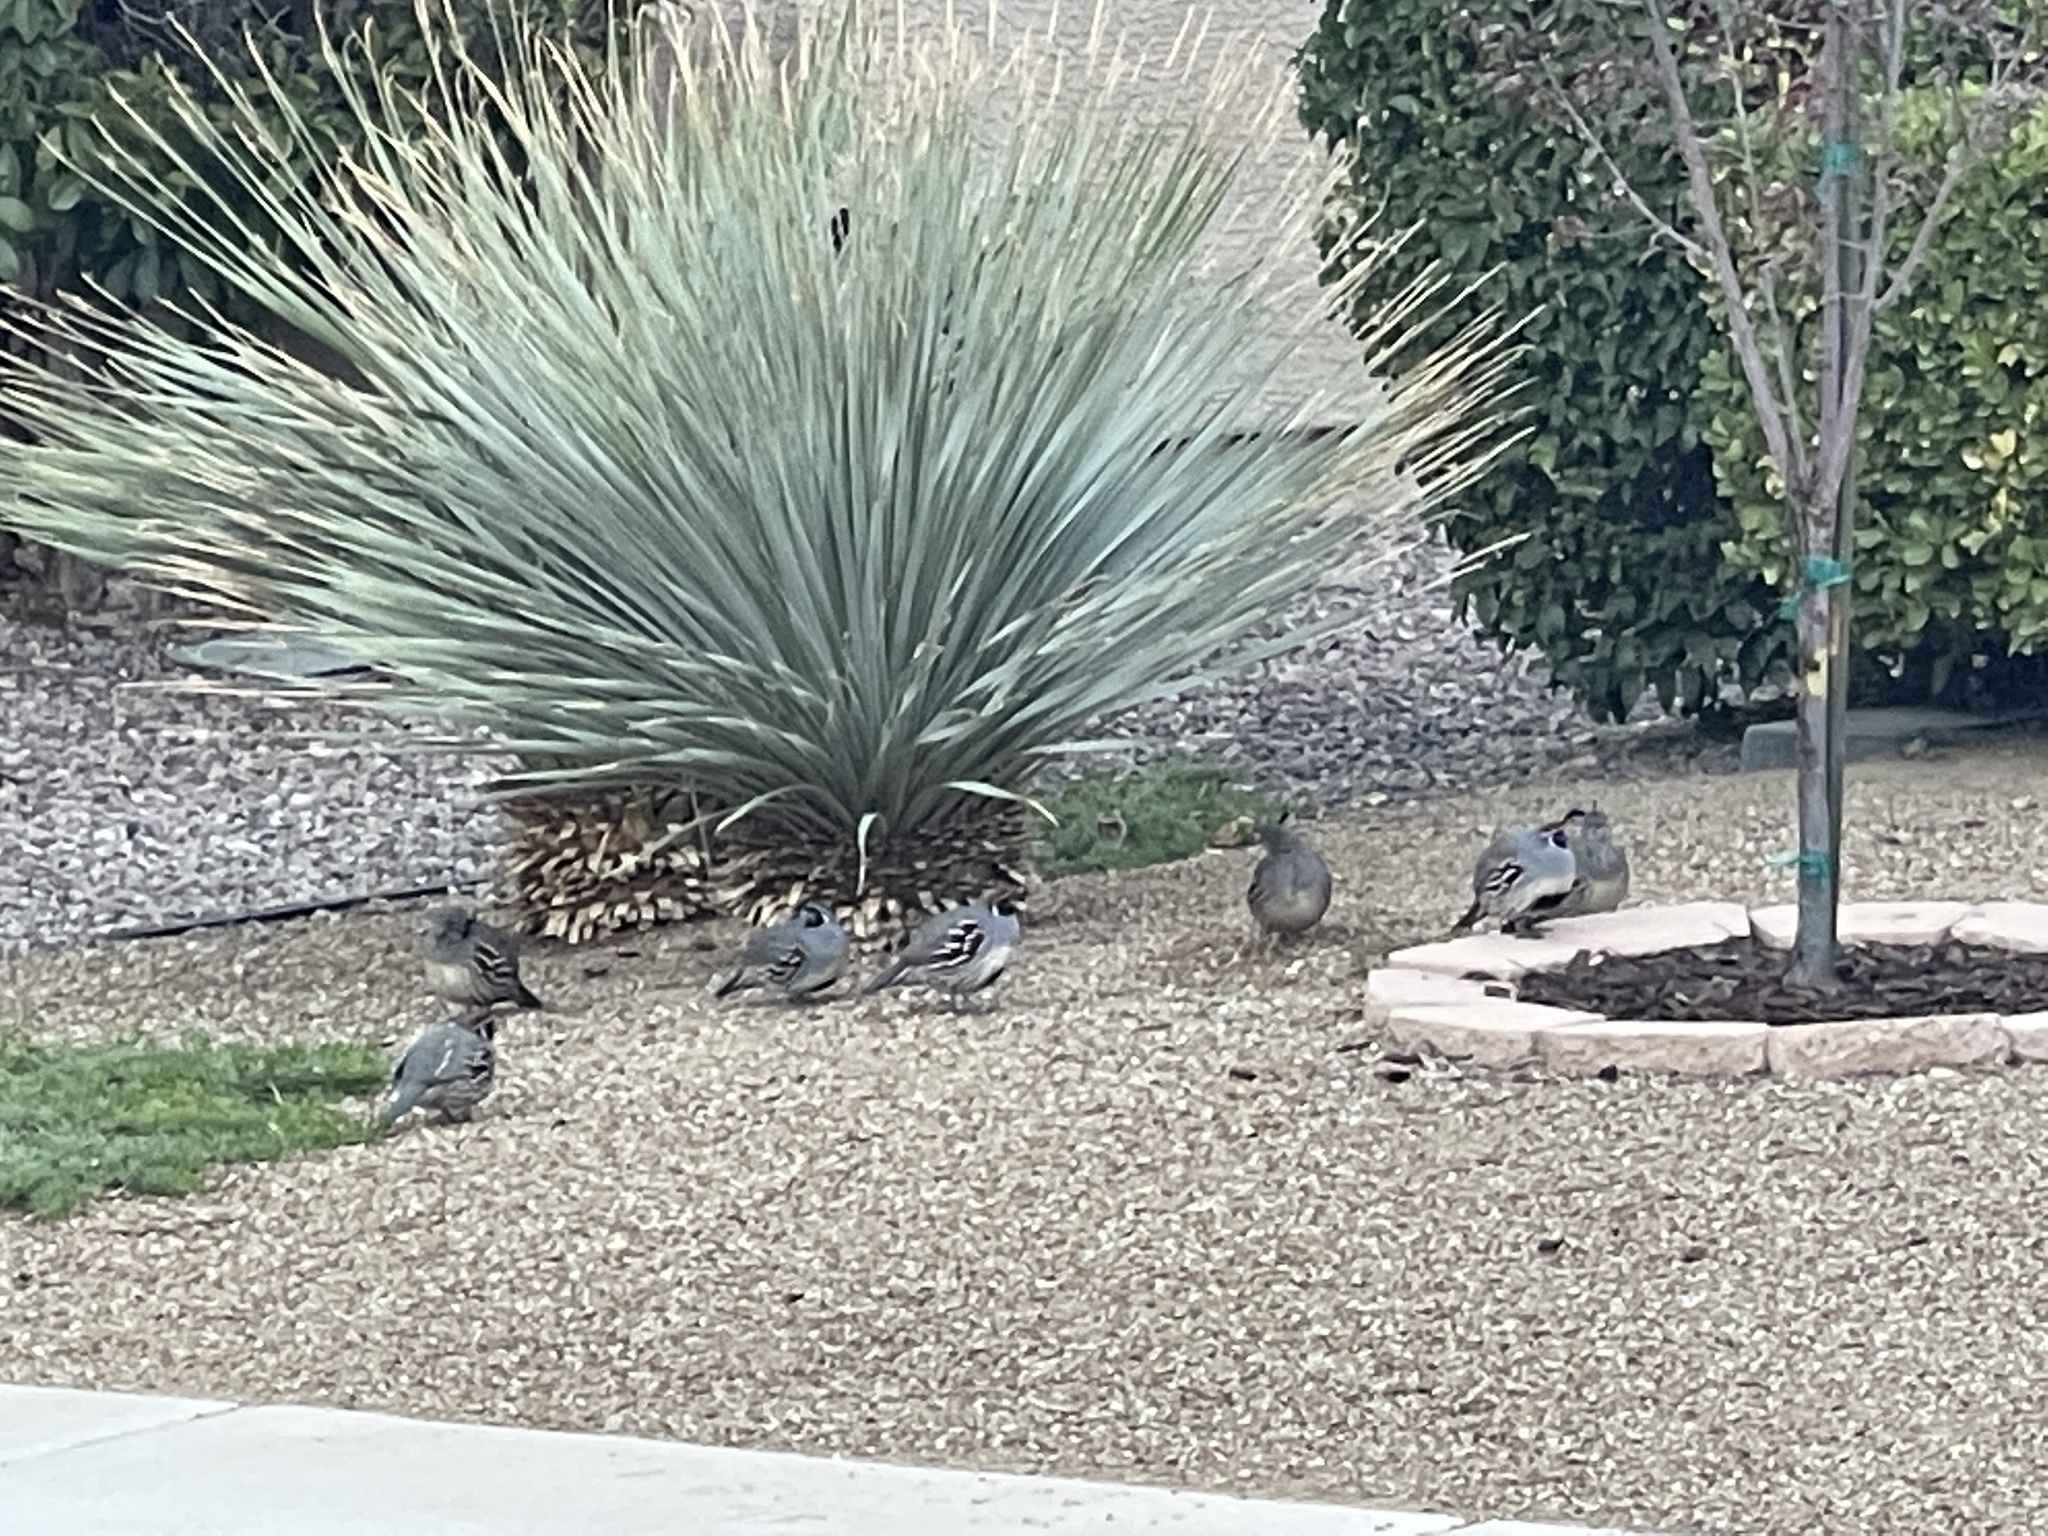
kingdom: Animalia
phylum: Chordata
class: Aves
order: Galliformes
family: Odontophoridae
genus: Callipepla
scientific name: Callipepla gambelii
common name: Gambel's quail
